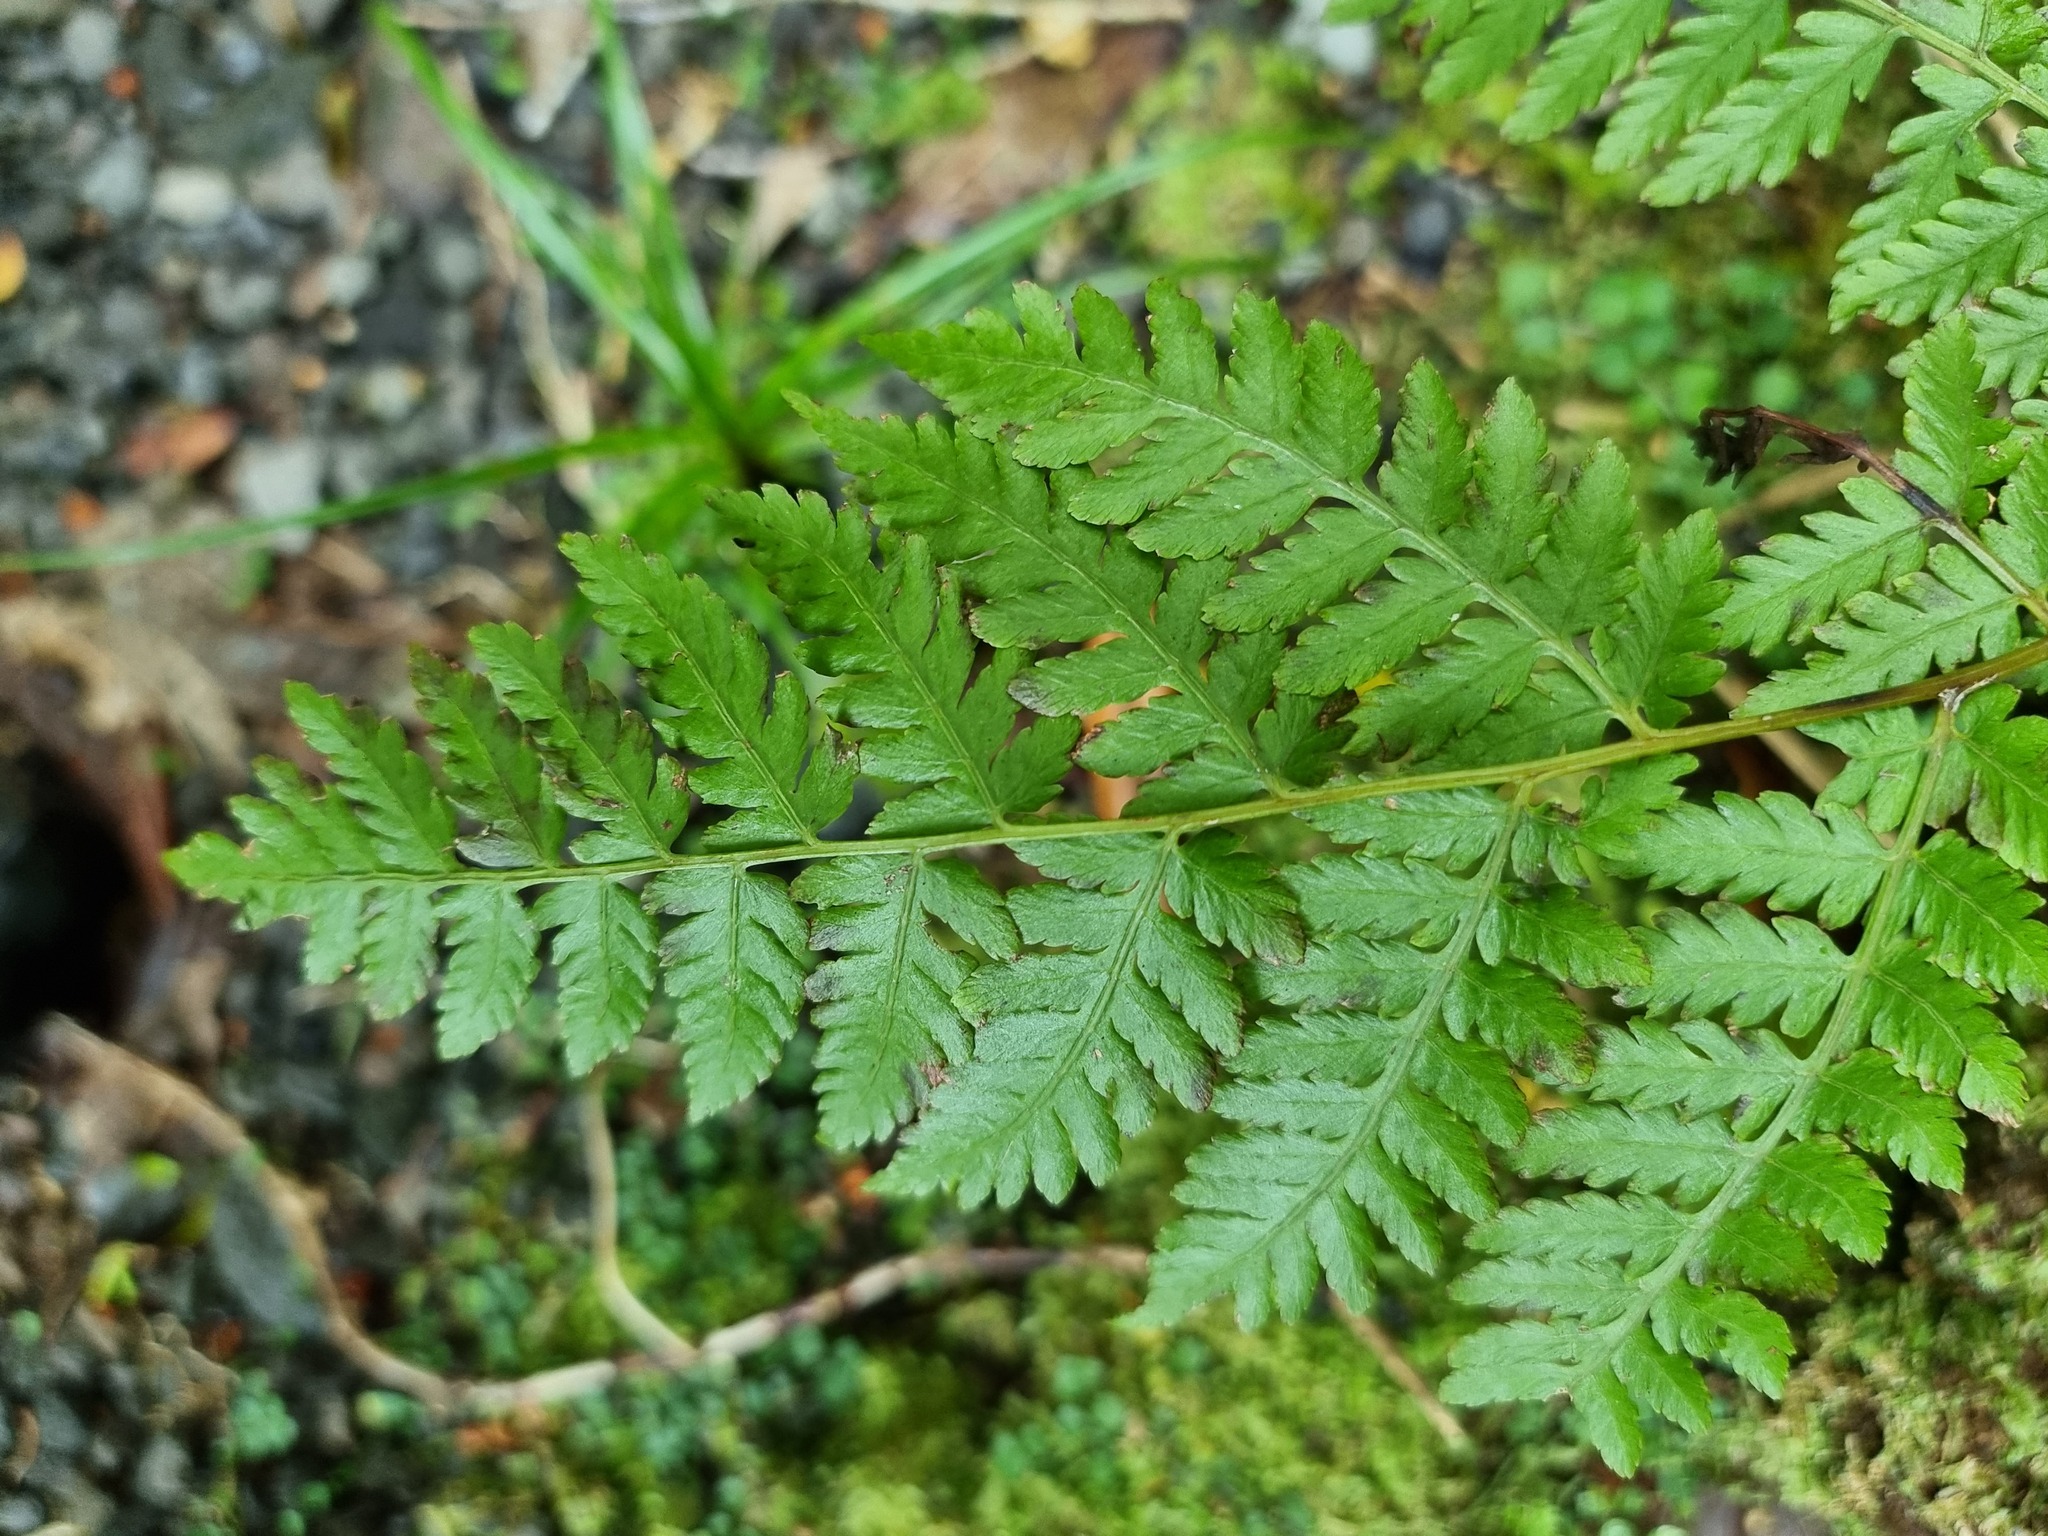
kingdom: Plantae
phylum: Tracheophyta
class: Polypodiopsida
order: Polypodiales
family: Athyriaceae
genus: Diplazium
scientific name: Diplazium australe
